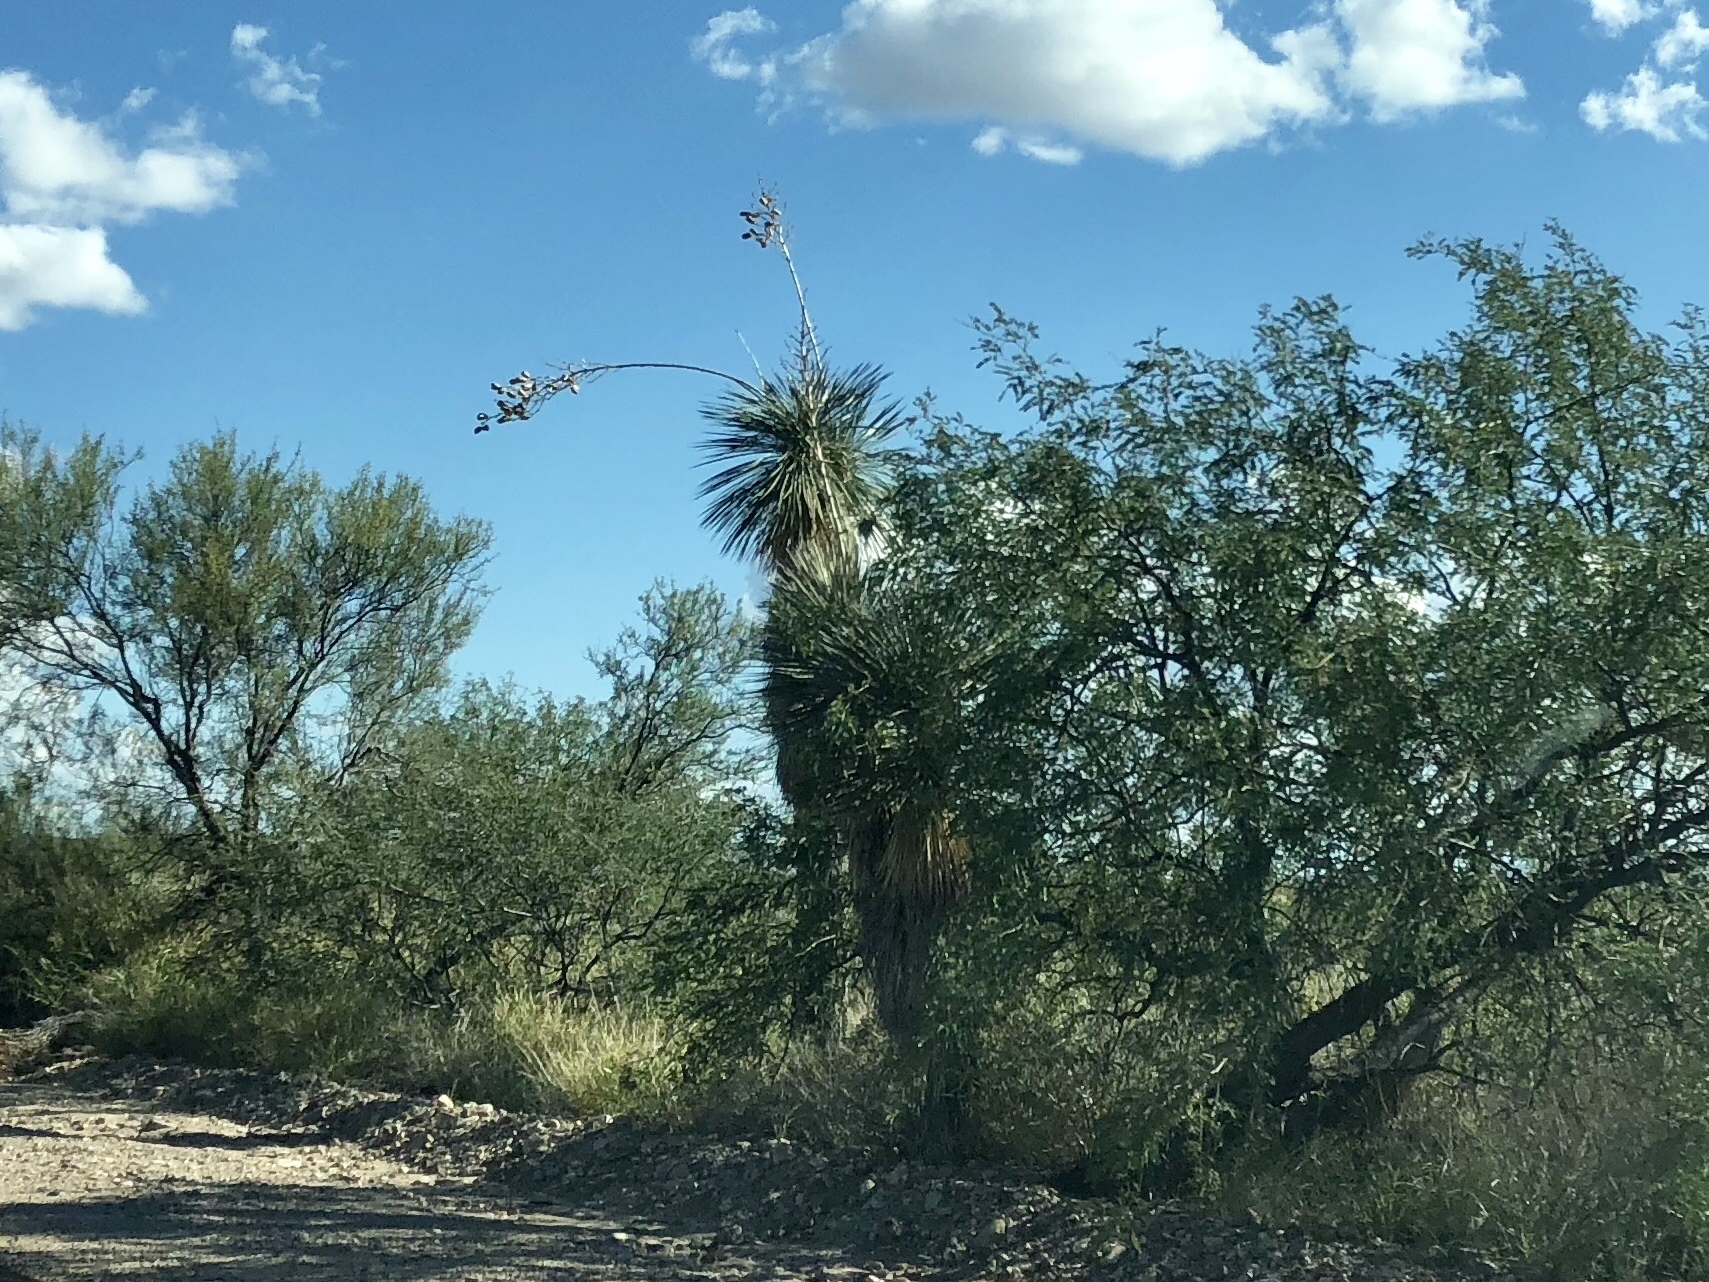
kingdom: Plantae
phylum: Tracheophyta
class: Liliopsida
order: Asparagales
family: Asparagaceae
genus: Yucca
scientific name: Yucca elata
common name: Palmella
